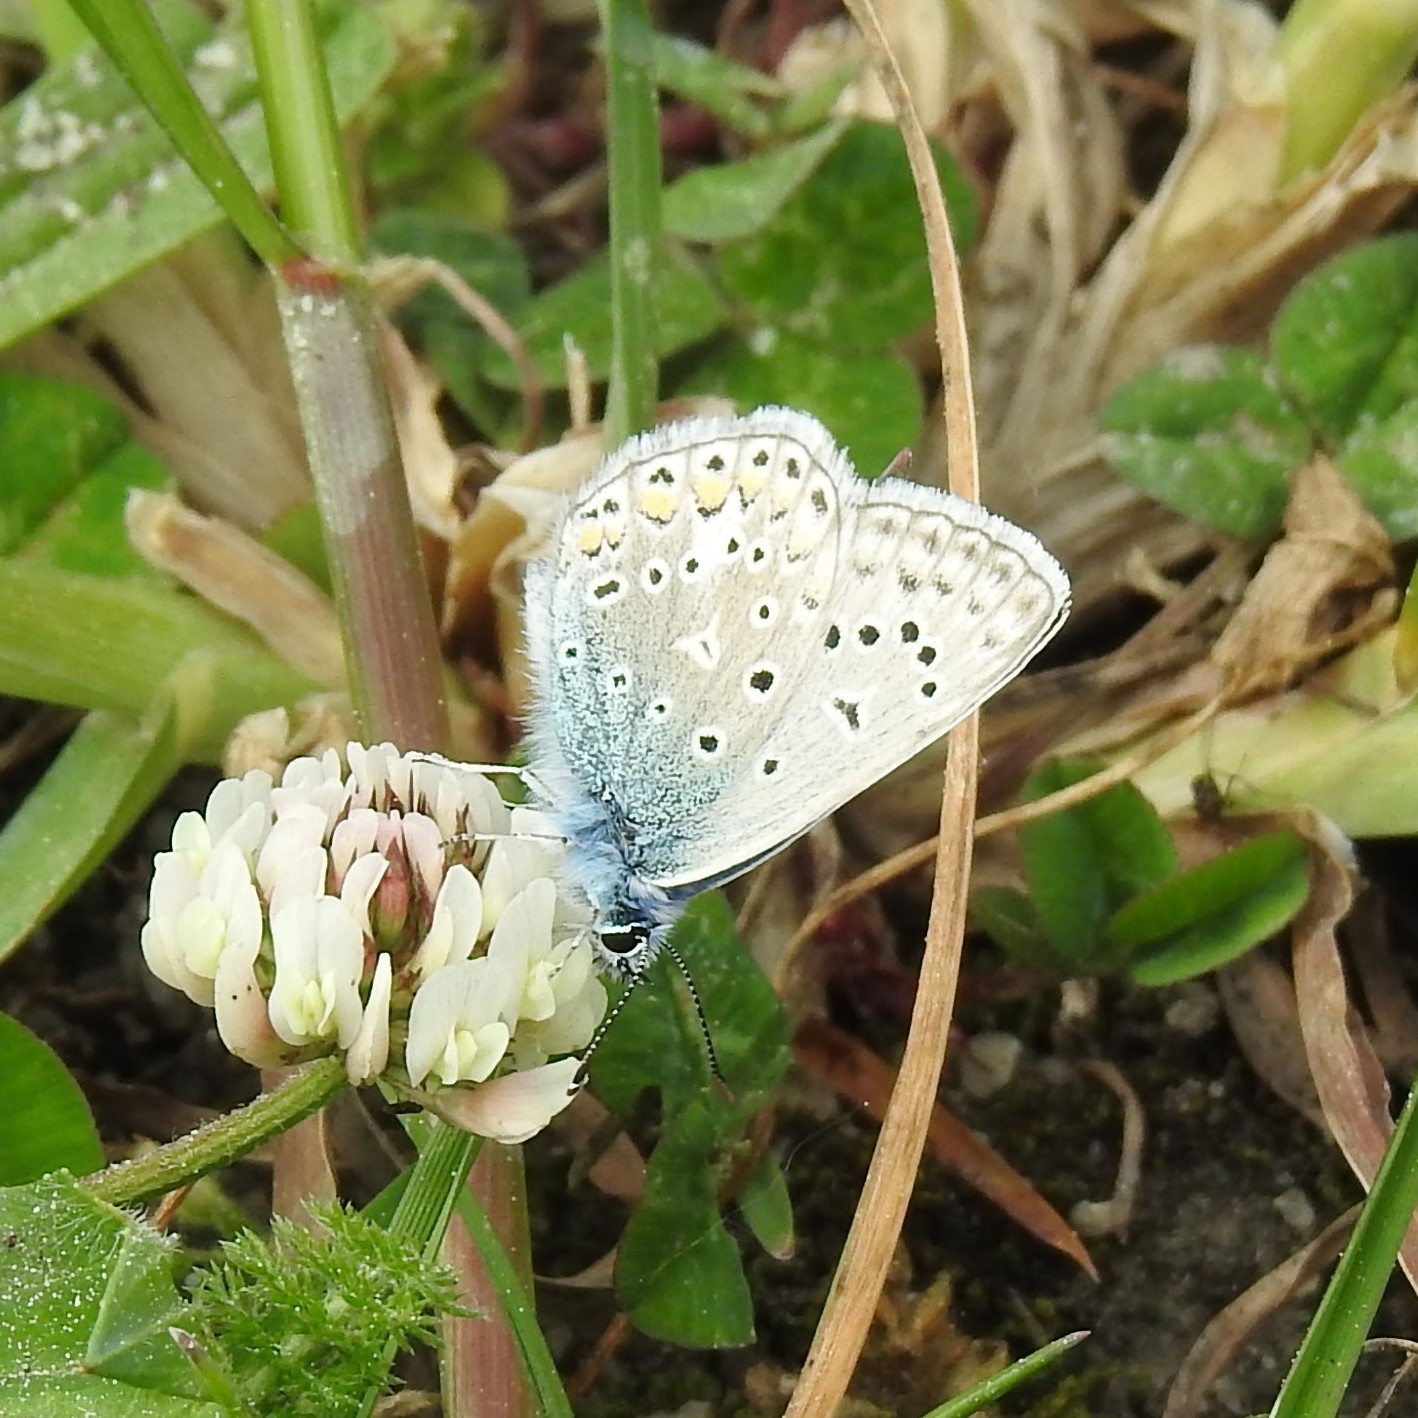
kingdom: Animalia
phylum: Arthropoda
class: Insecta
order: Lepidoptera
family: Lycaenidae
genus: Polyommatus
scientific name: Polyommatus icarus
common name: Common blue
